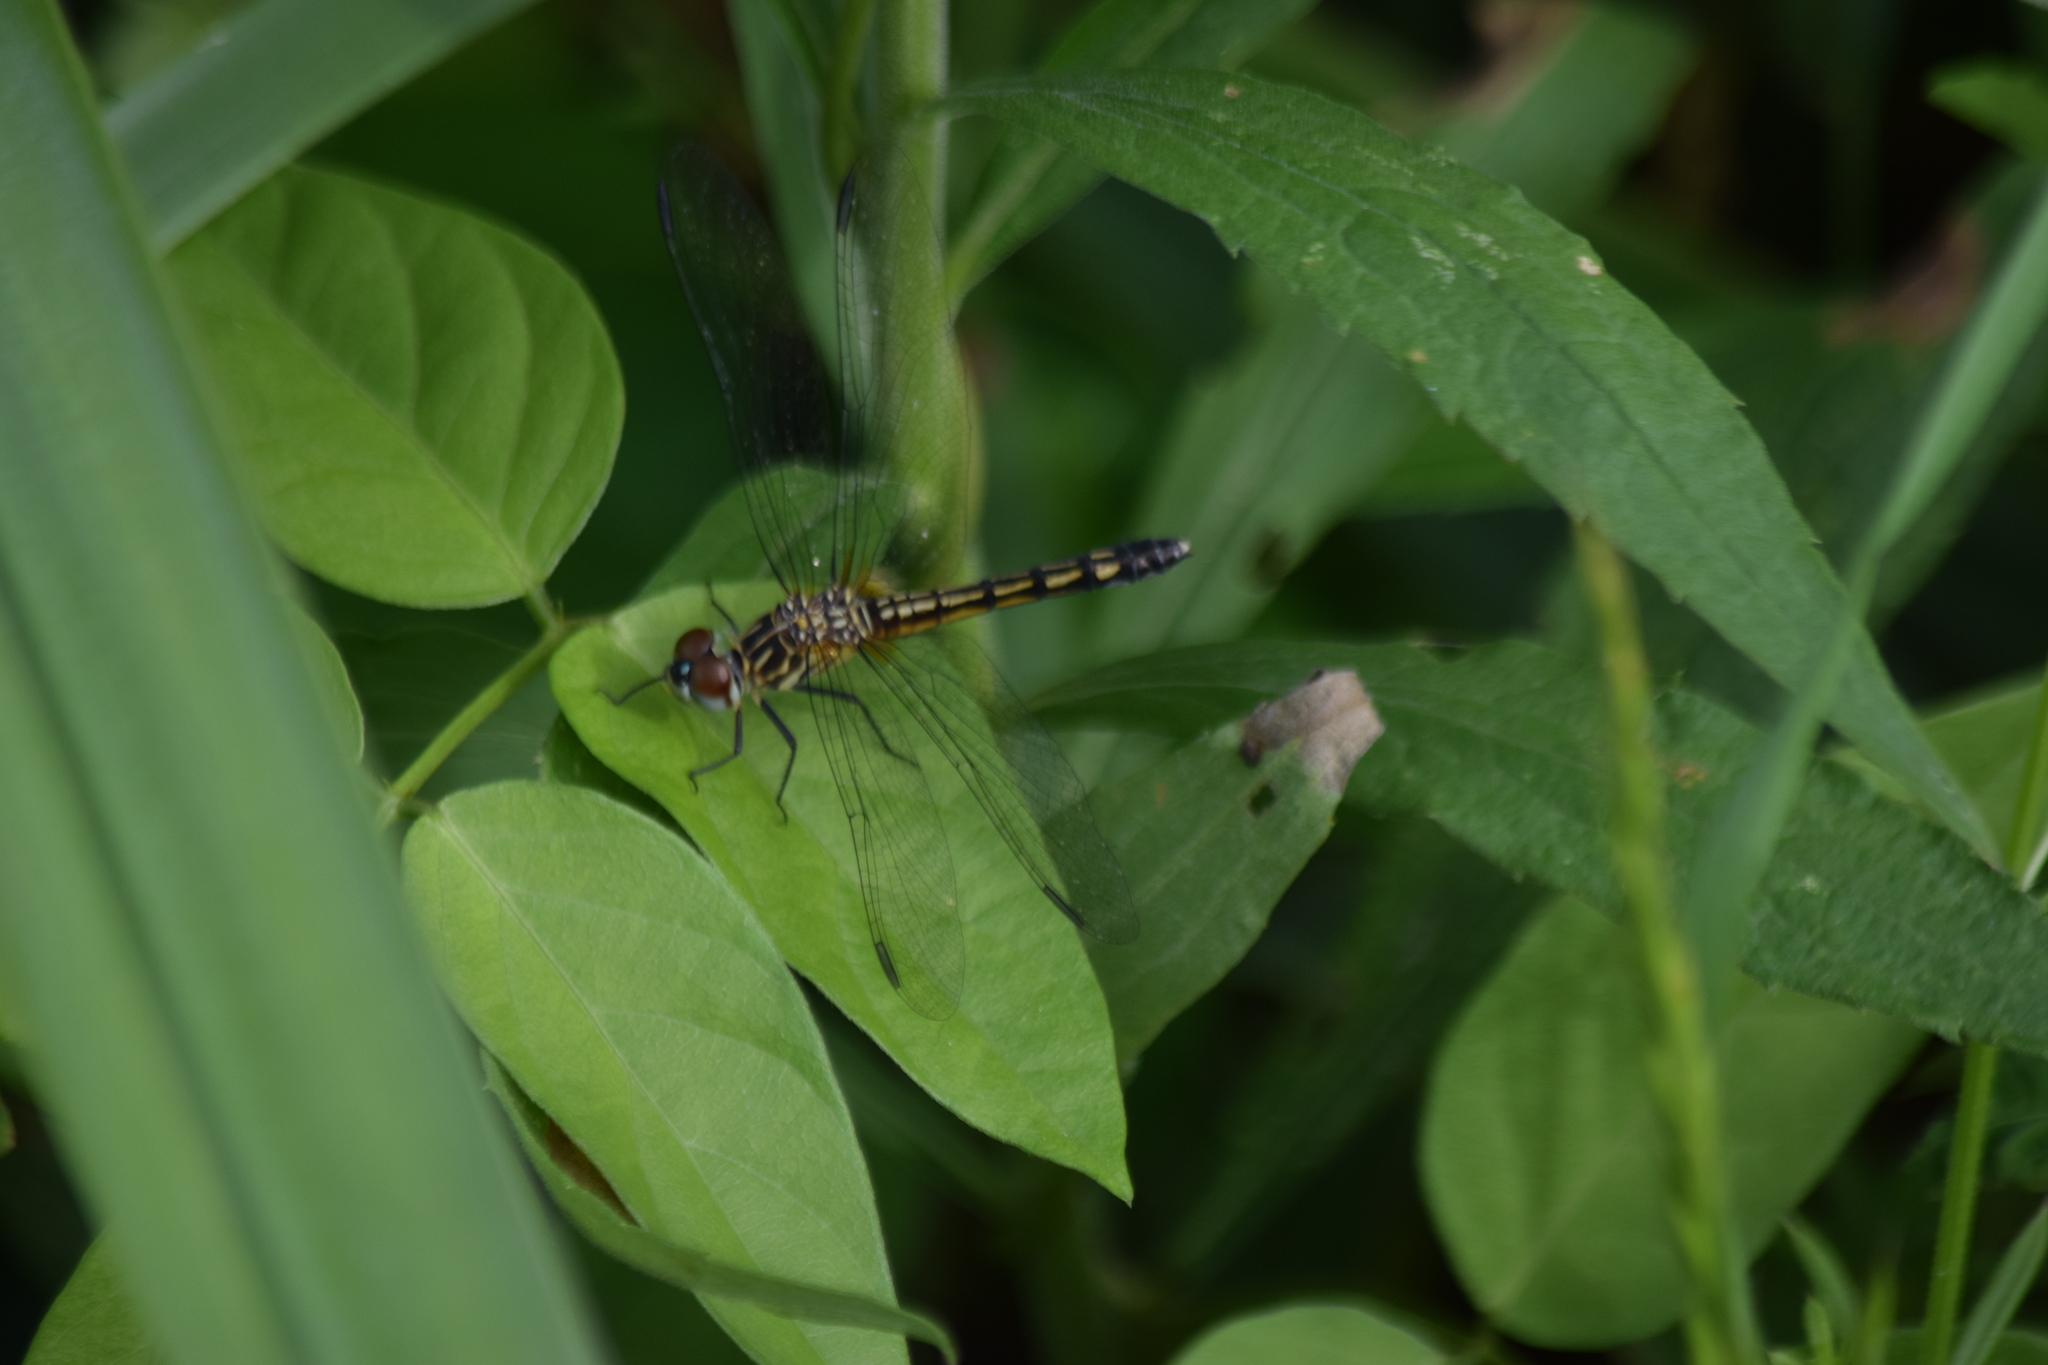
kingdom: Animalia
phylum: Arthropoda
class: Insecta
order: Odonata
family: Libellulidae
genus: Pachydiplax
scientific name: Pachydiplax longipennis
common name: Blue dasher
